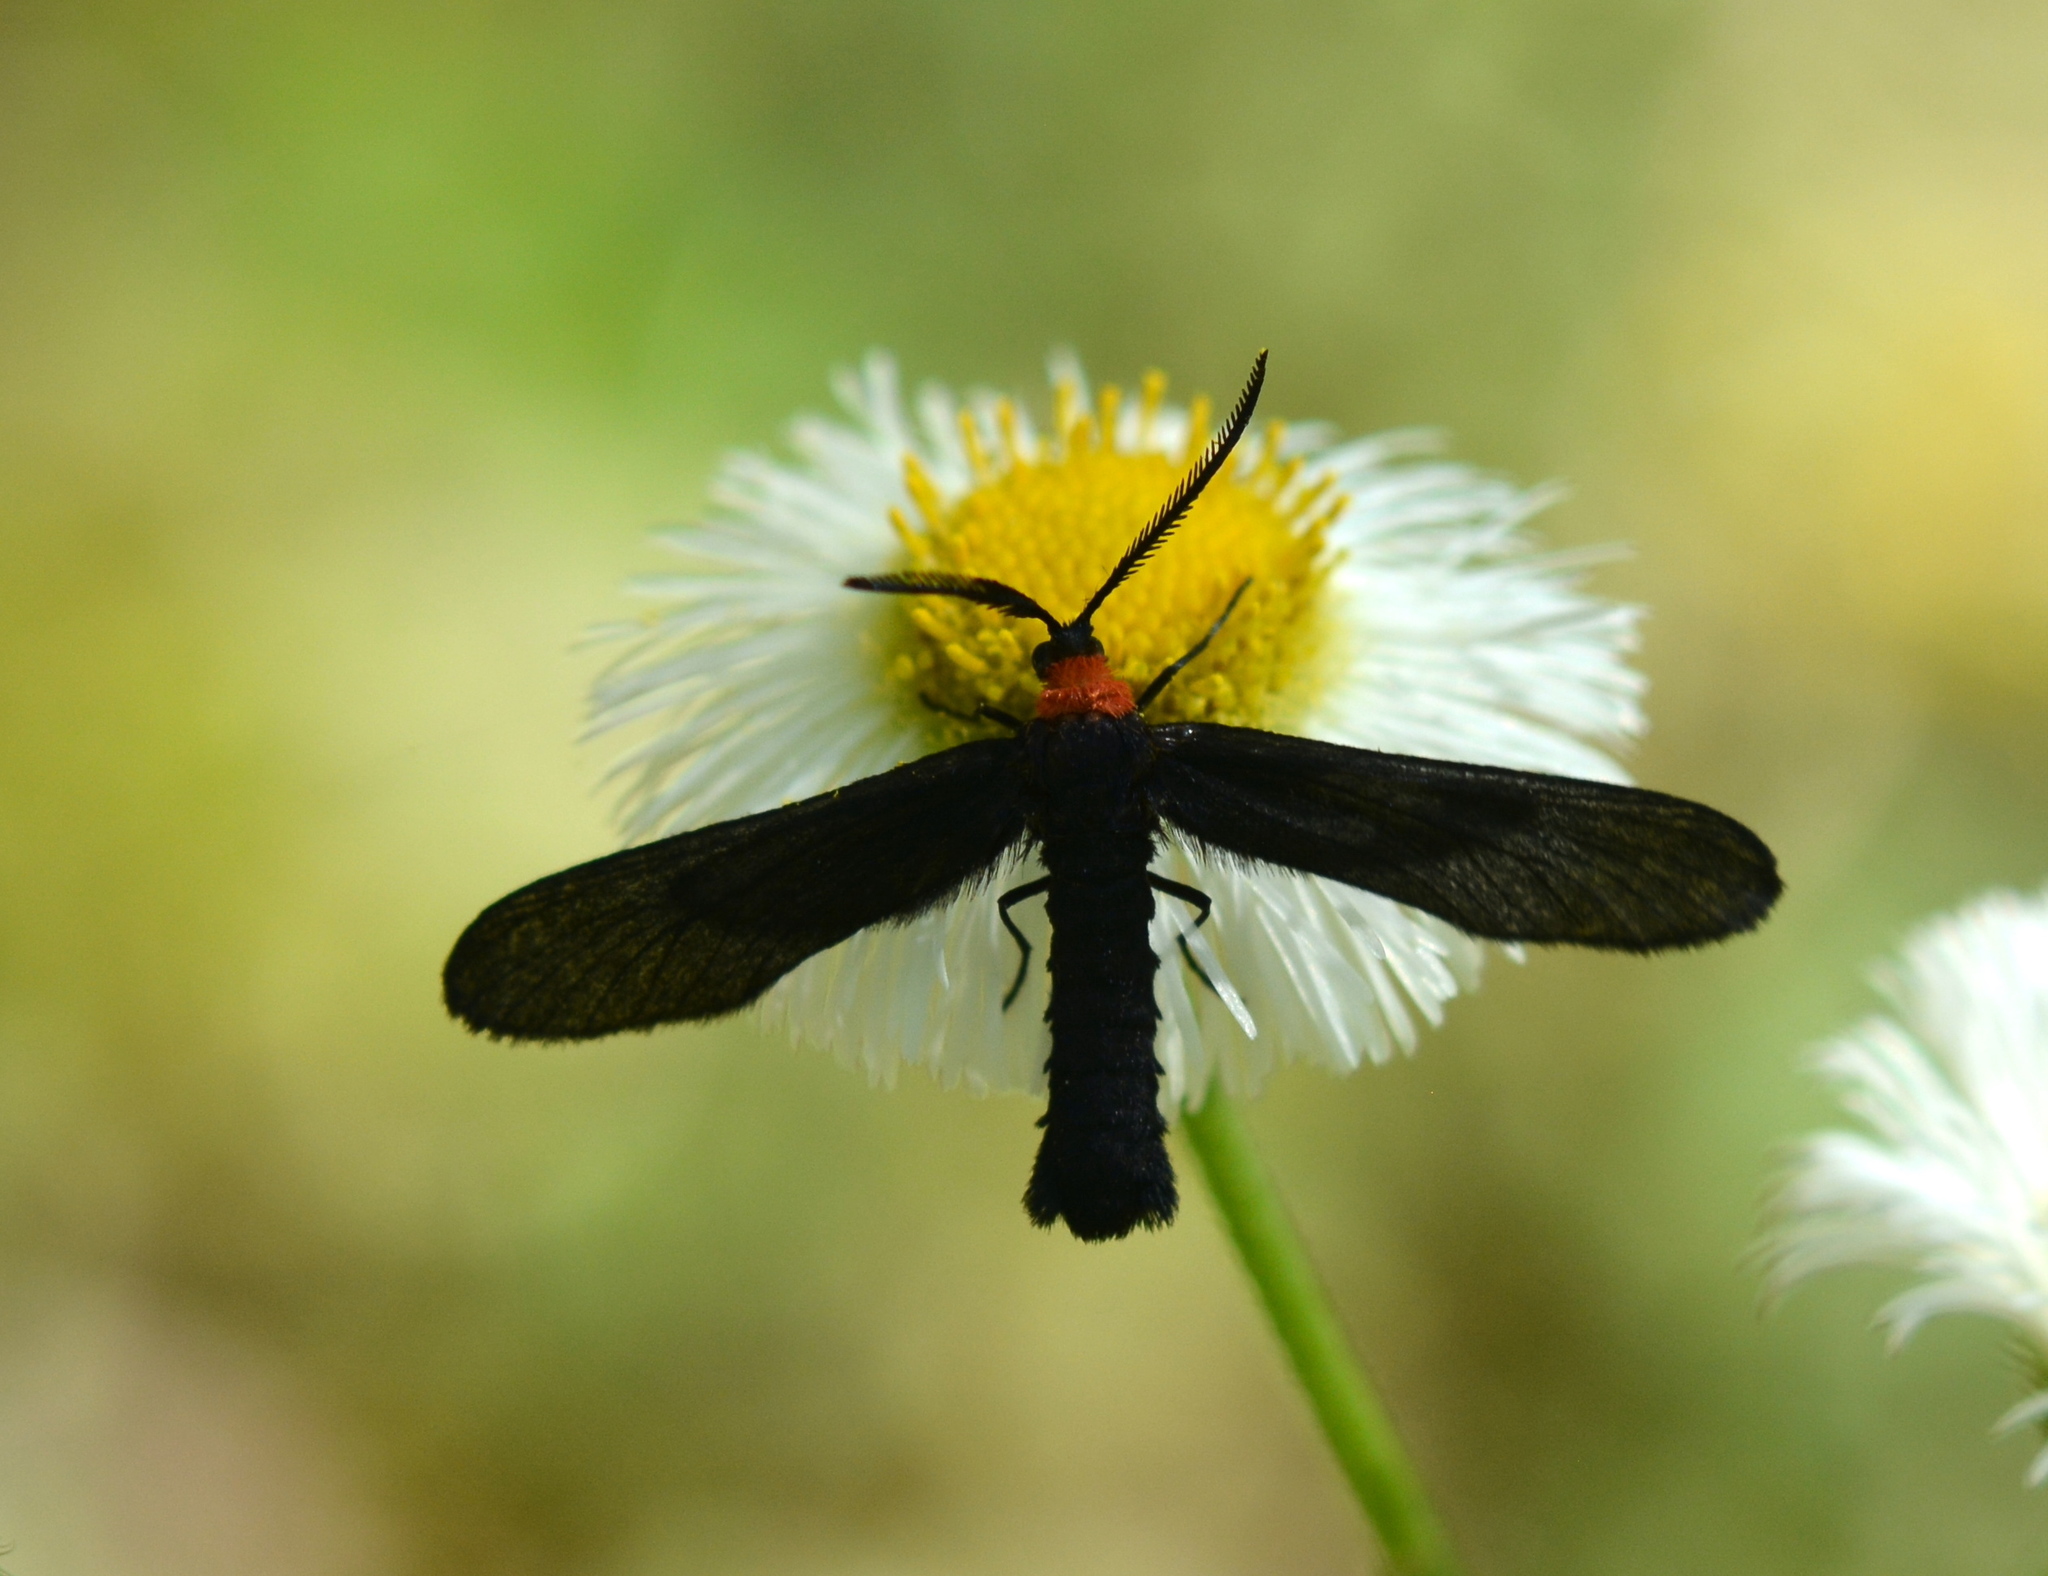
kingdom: Animalia
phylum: Arthropoda
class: Insecta
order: Lepidoptera
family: Zygaenidae
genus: Harrisina
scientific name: Harrisina americana
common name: Grapeleaf skeletonizer moth
